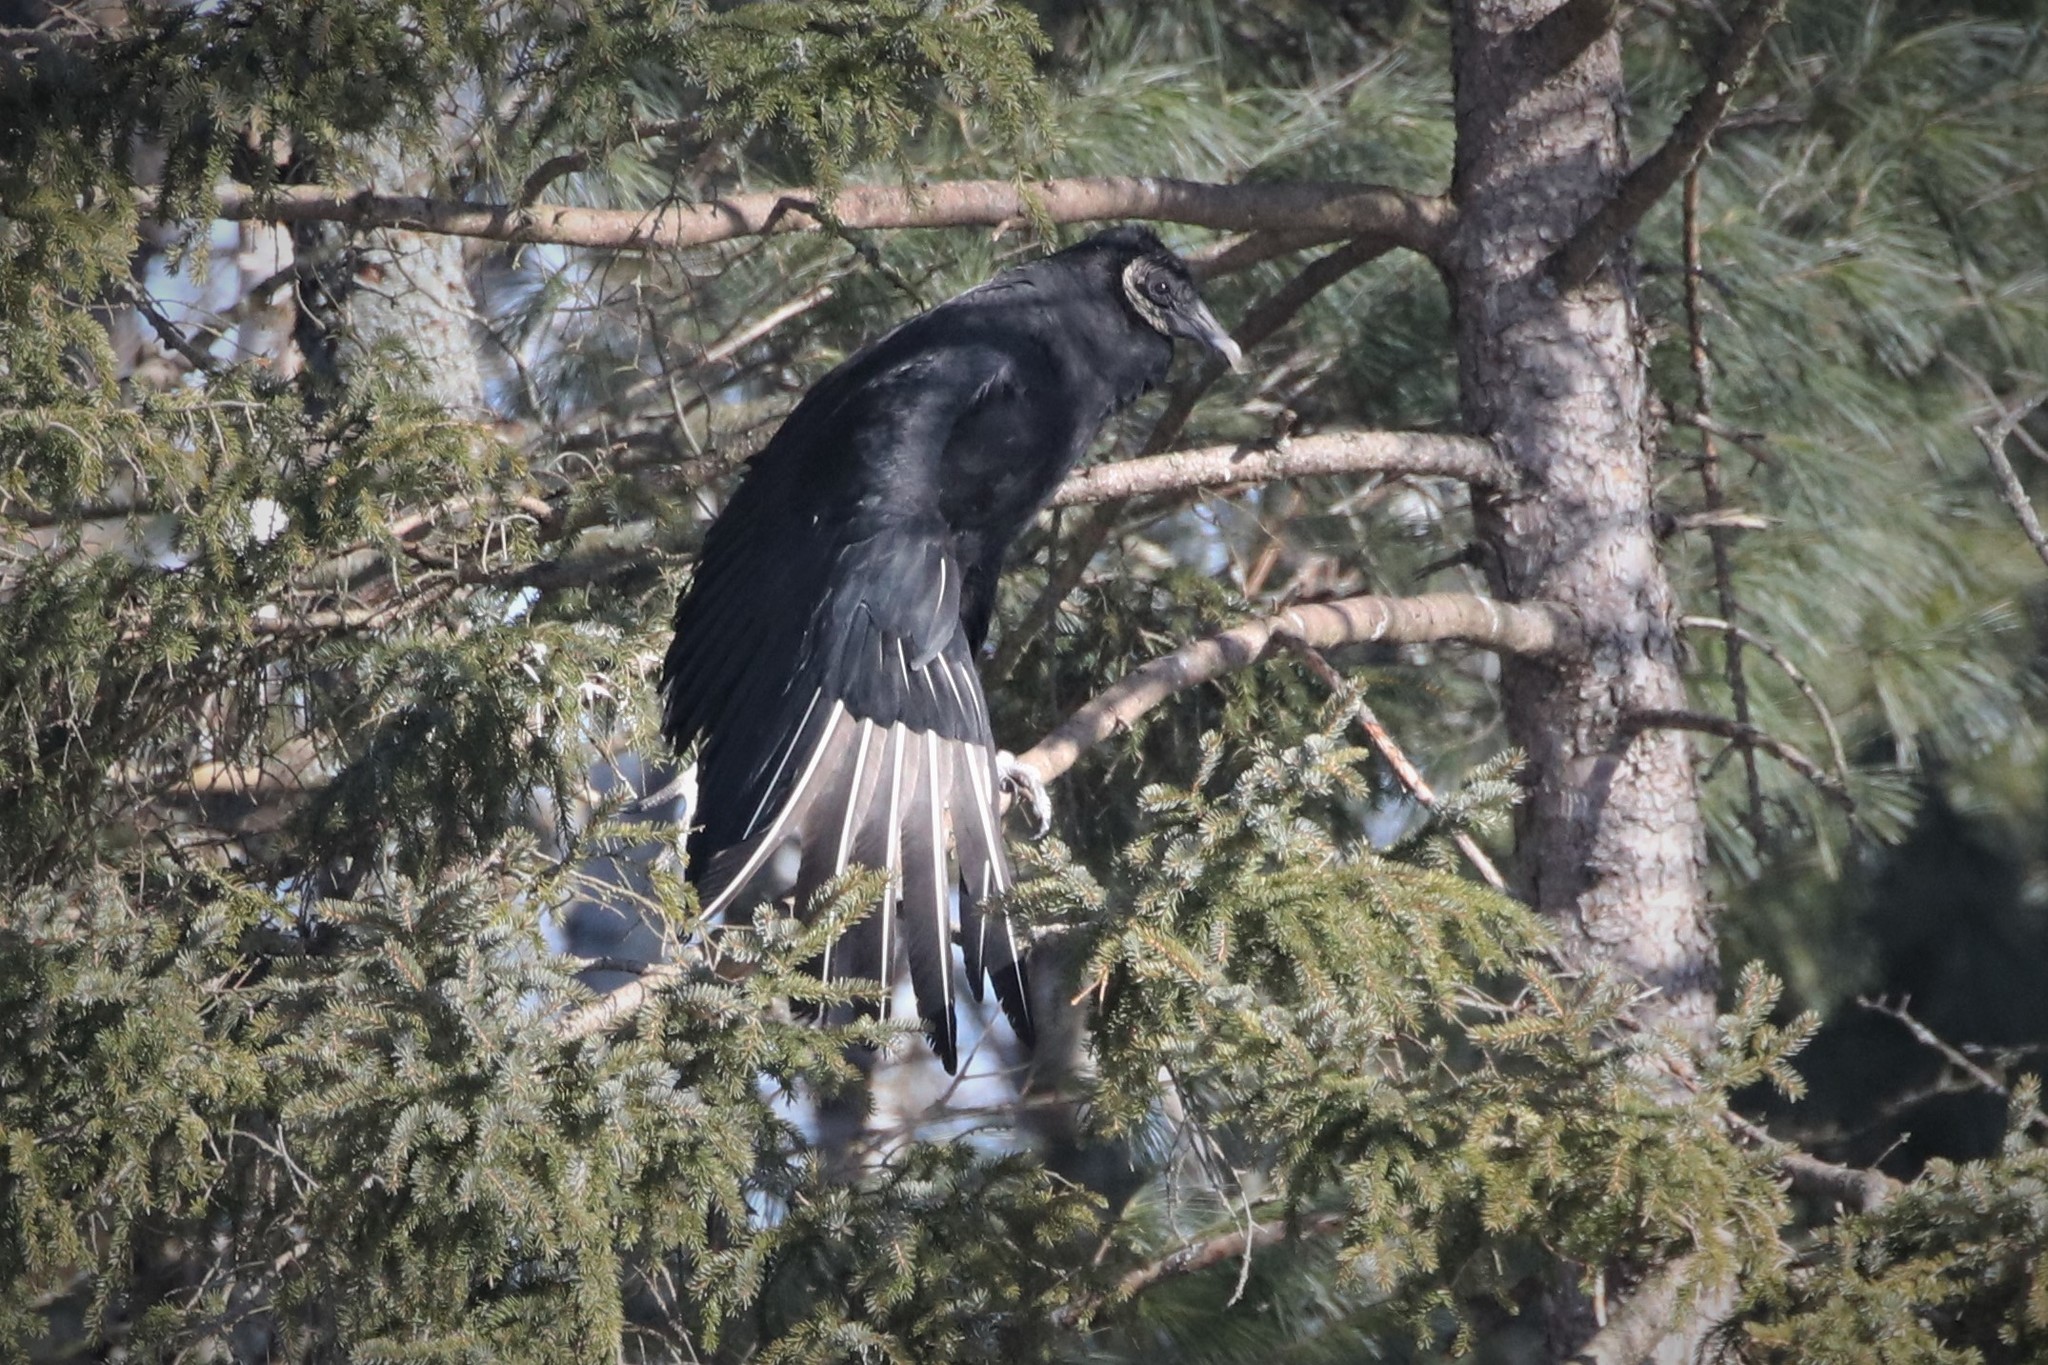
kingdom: Animalia
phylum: Chordata
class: Aves
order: Accipitriformes
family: Cathartidae
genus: Coragyps
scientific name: Coragyps atratus
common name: Black vulture
